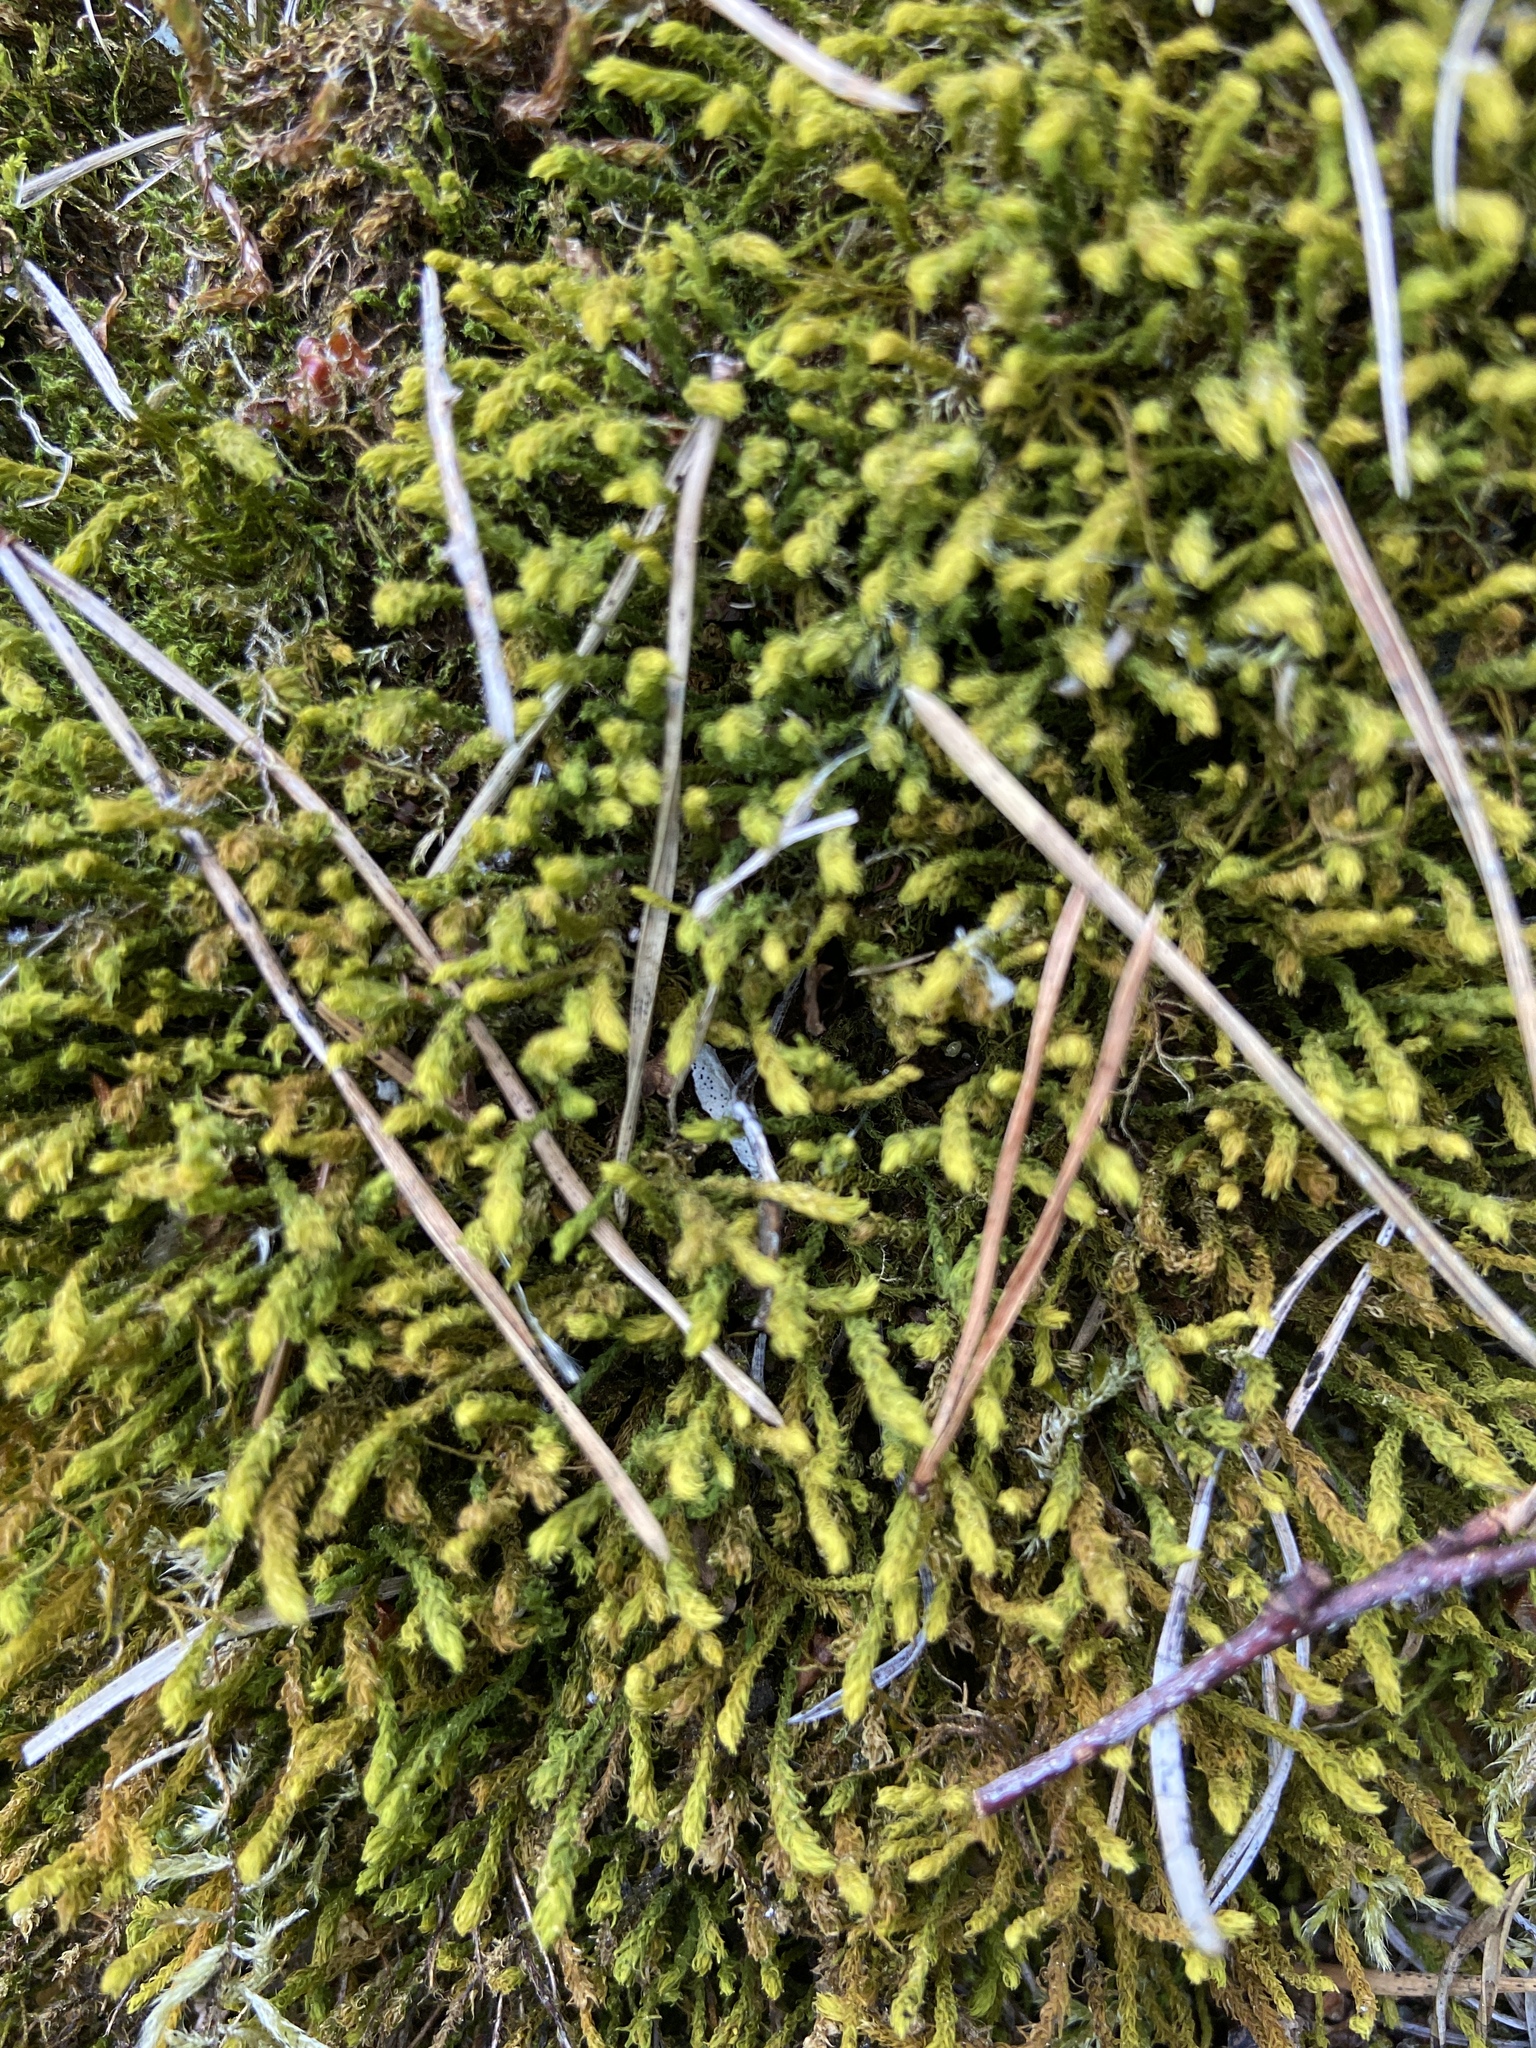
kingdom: Plantae
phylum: Bryophyta
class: Bryopsida
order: Hypnales
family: Anomodontaceae
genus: Anomodon
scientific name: Anomodon viticulosus
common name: Tall anomodon
